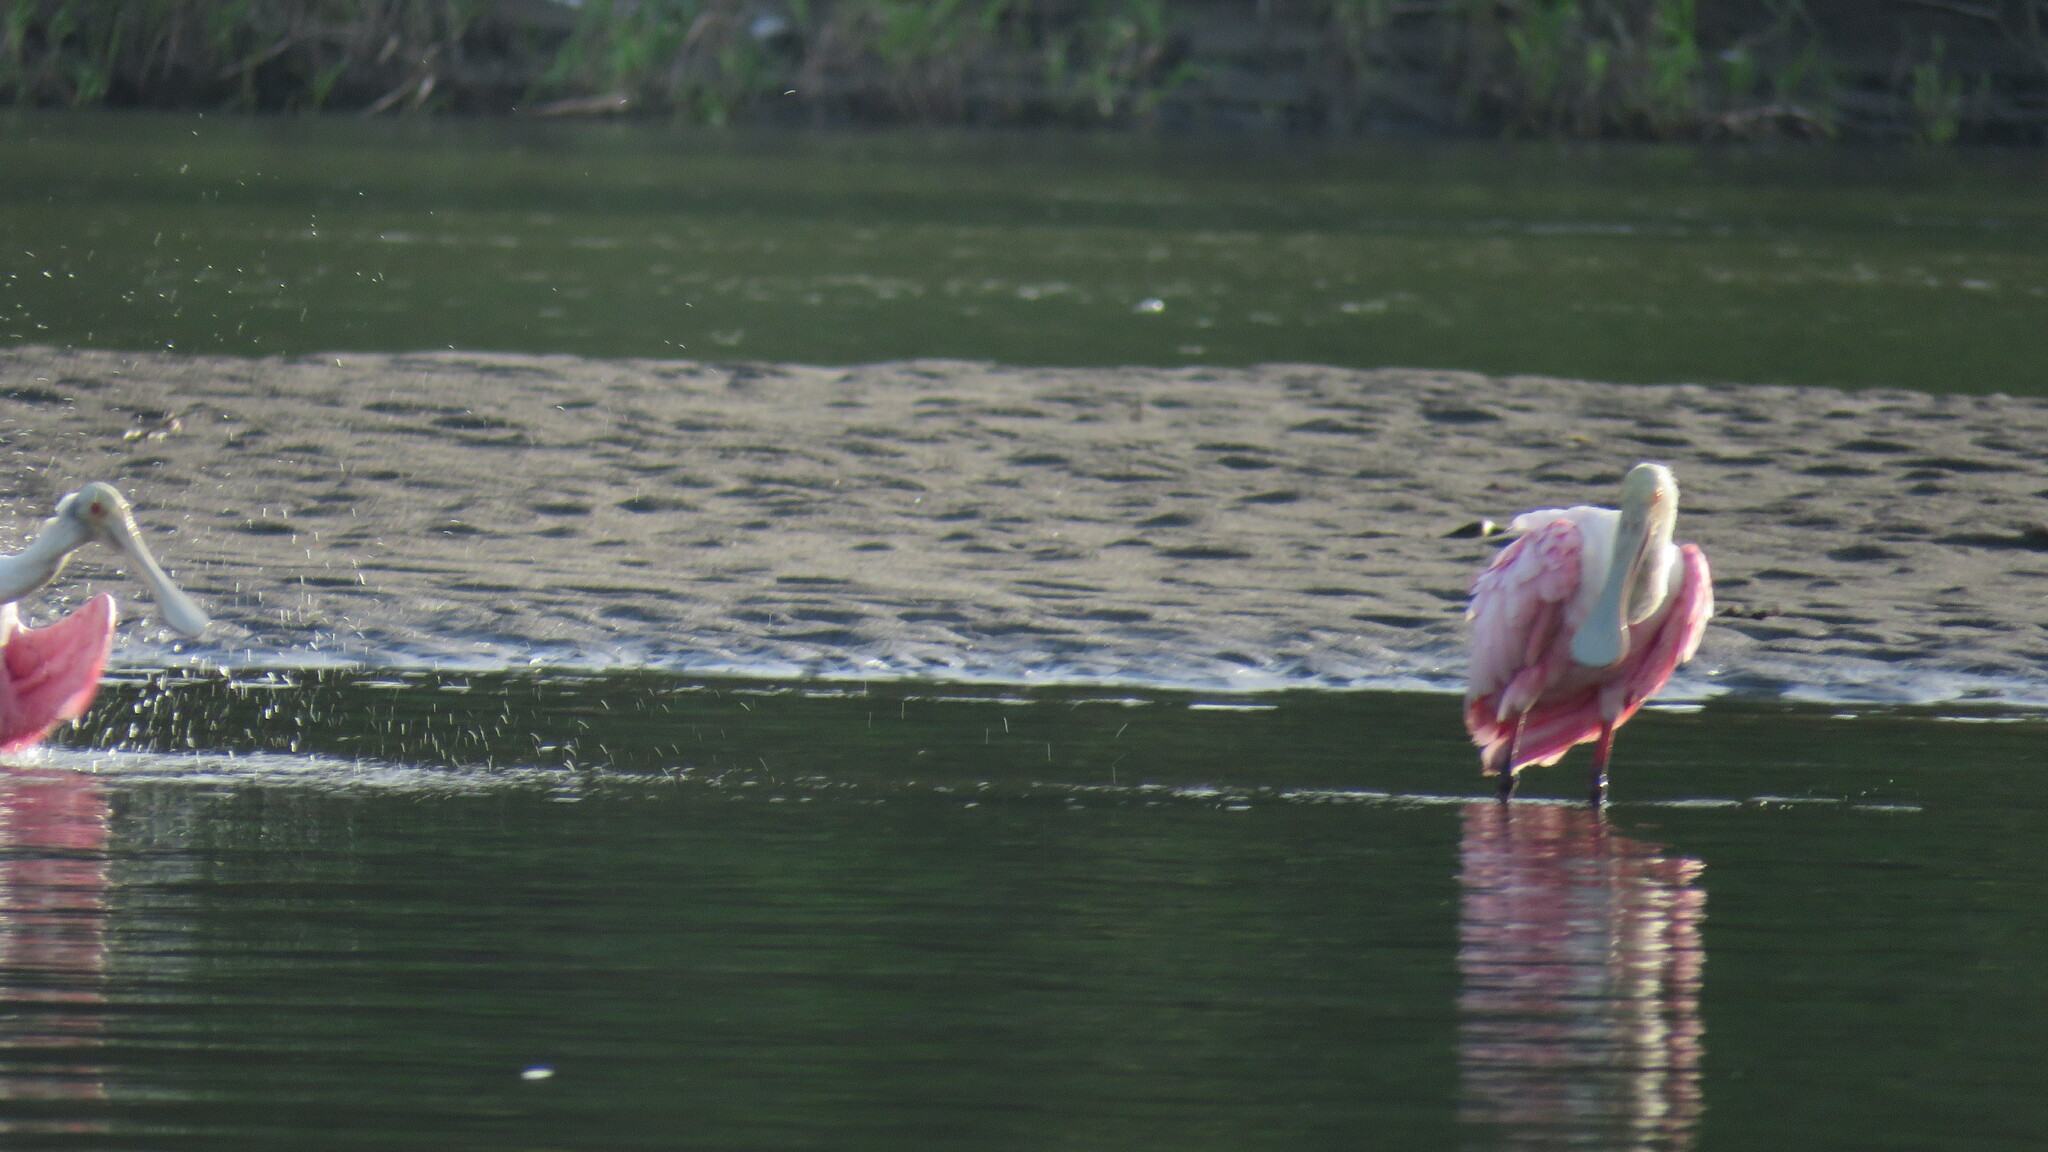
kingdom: Animalia
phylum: Chordata
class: Aves
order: Pelecaniformes
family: Threskiornithidae
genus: Platalea
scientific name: Platalea ajaja
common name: Roseate spoonbill
